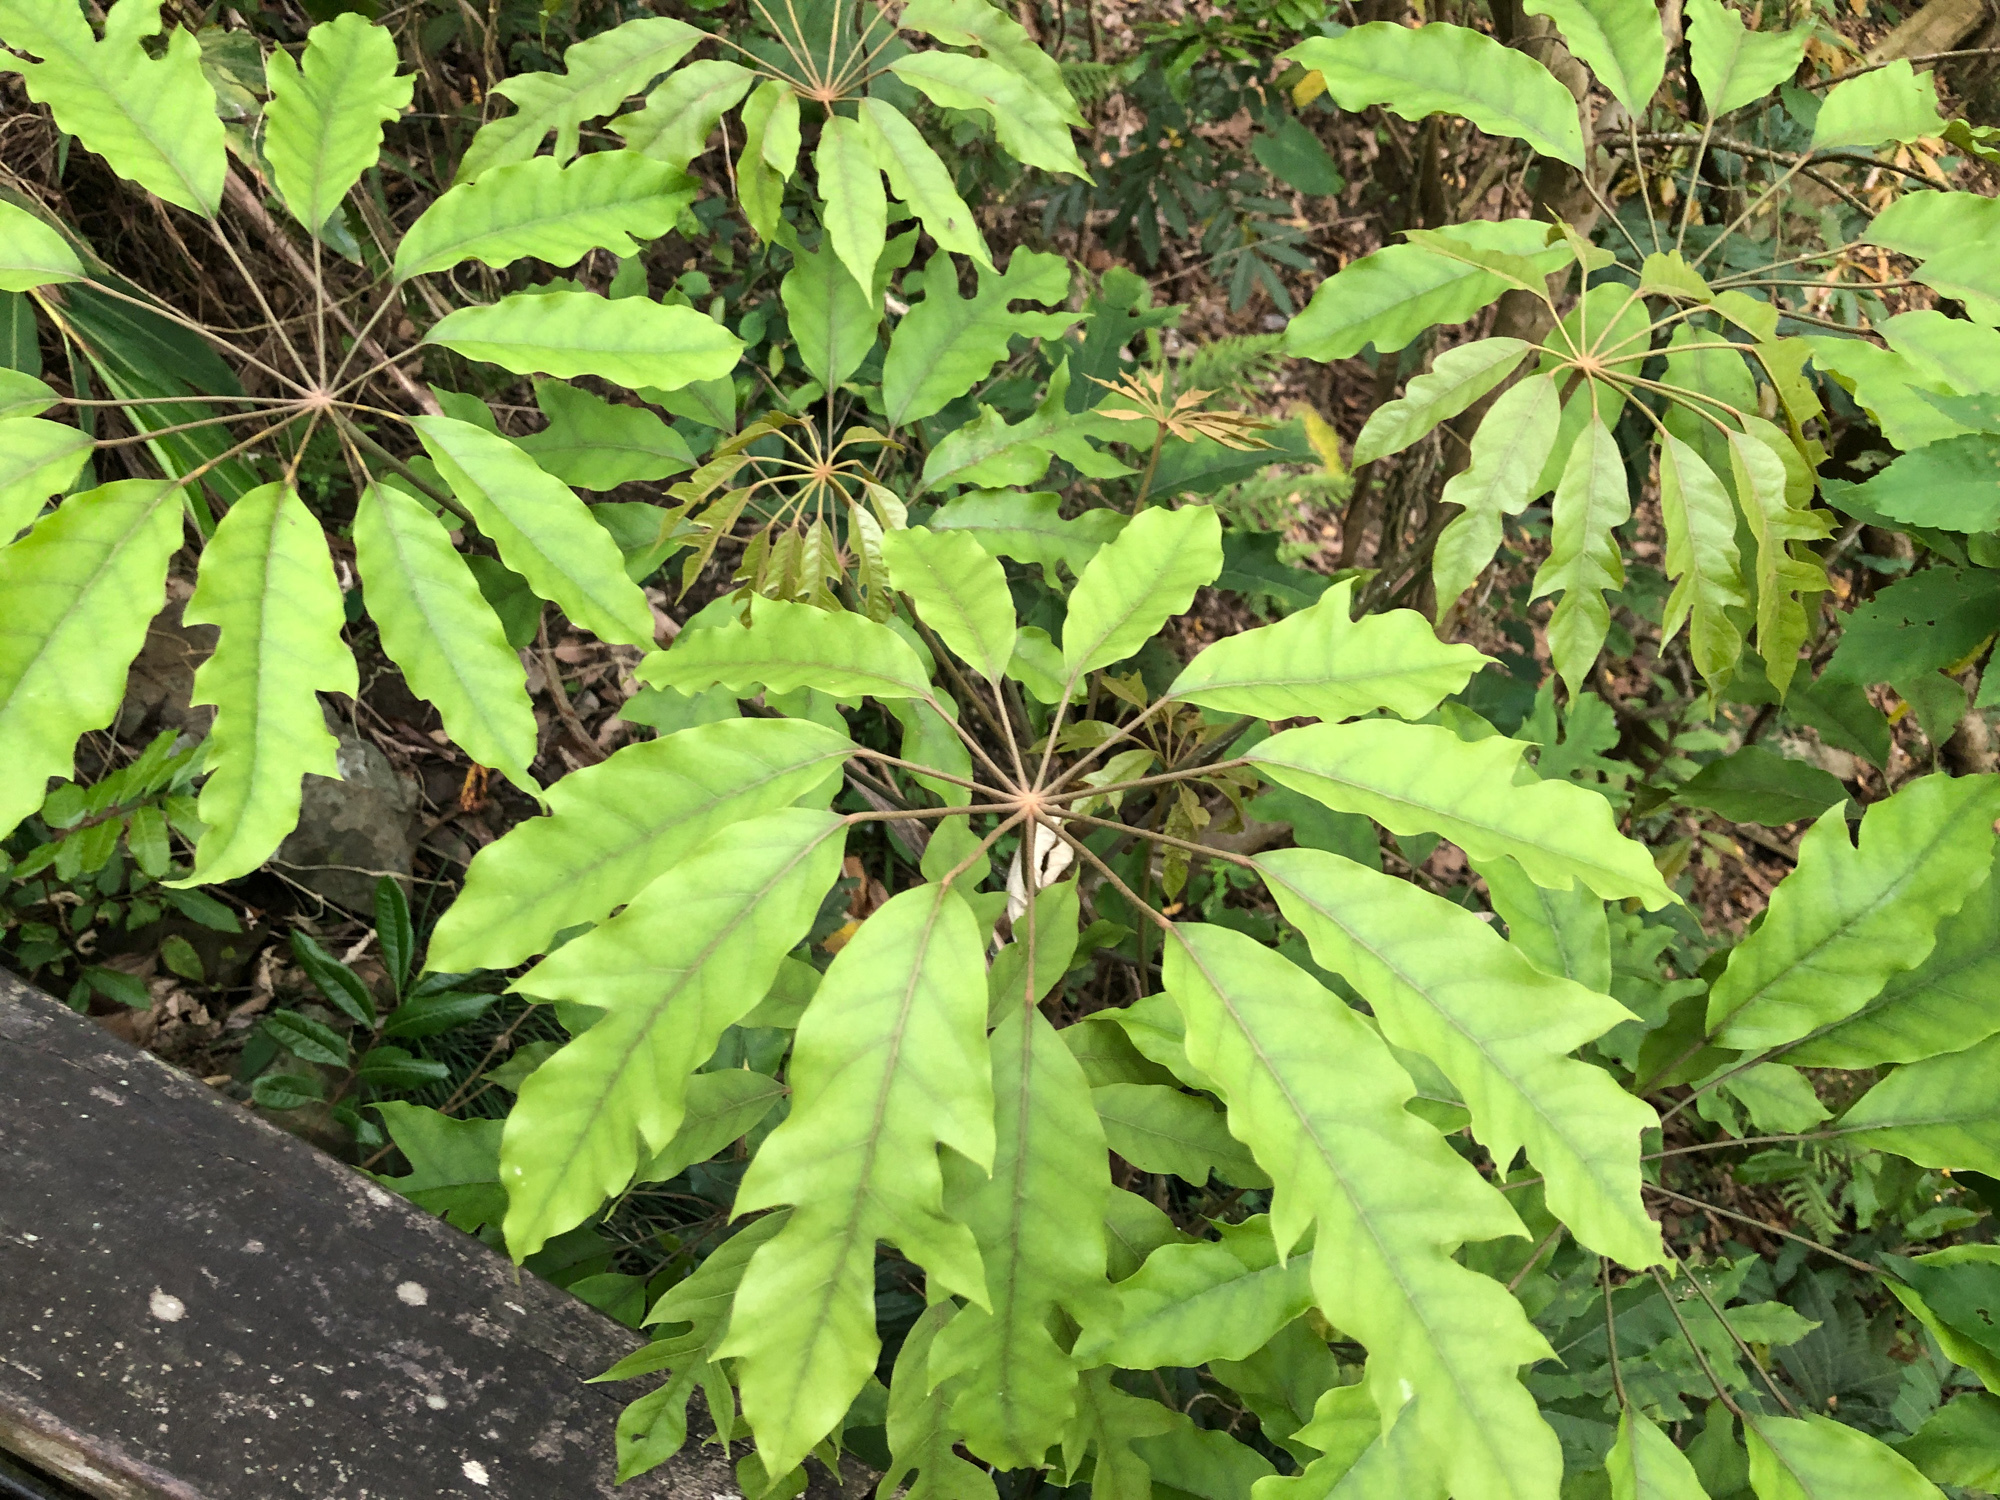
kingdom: Plantae
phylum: Tracheophyta
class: Magnoliopsida
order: Apiales
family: Araliaceae
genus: Heptapleurum
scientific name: Heptapleurum heptaphyllum
